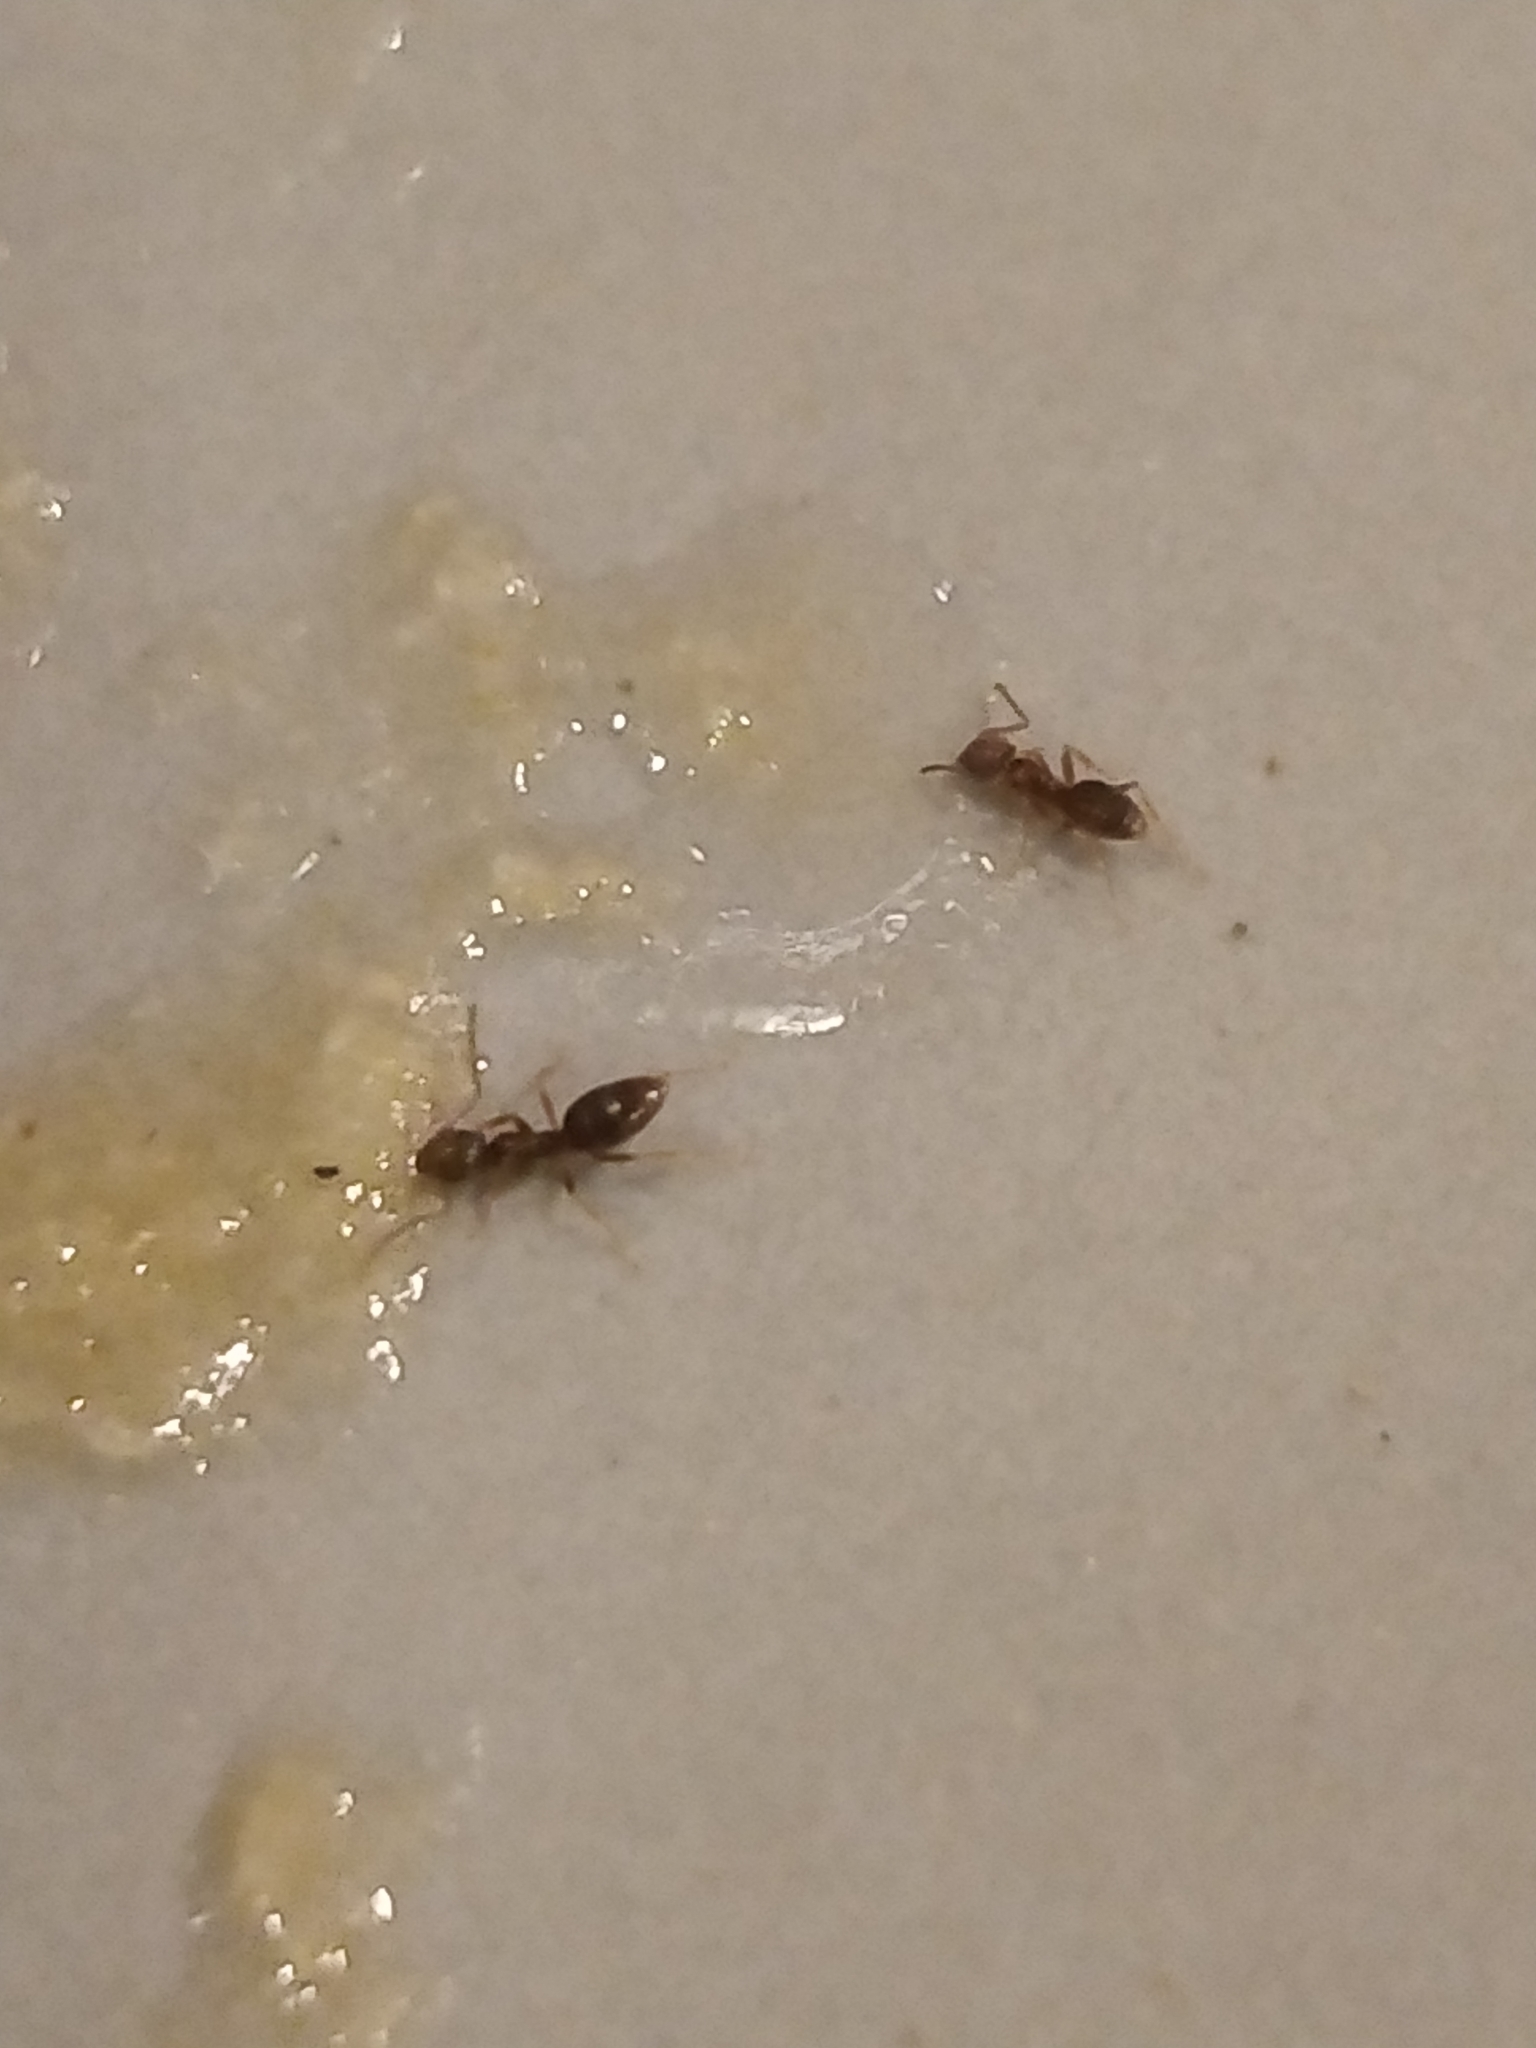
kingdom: Animalia
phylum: Arthropoda
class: Insecta
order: Hymenoptera
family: Formicidae
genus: Tapinoma
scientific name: Tapinoma sessile
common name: Odorous house ant
